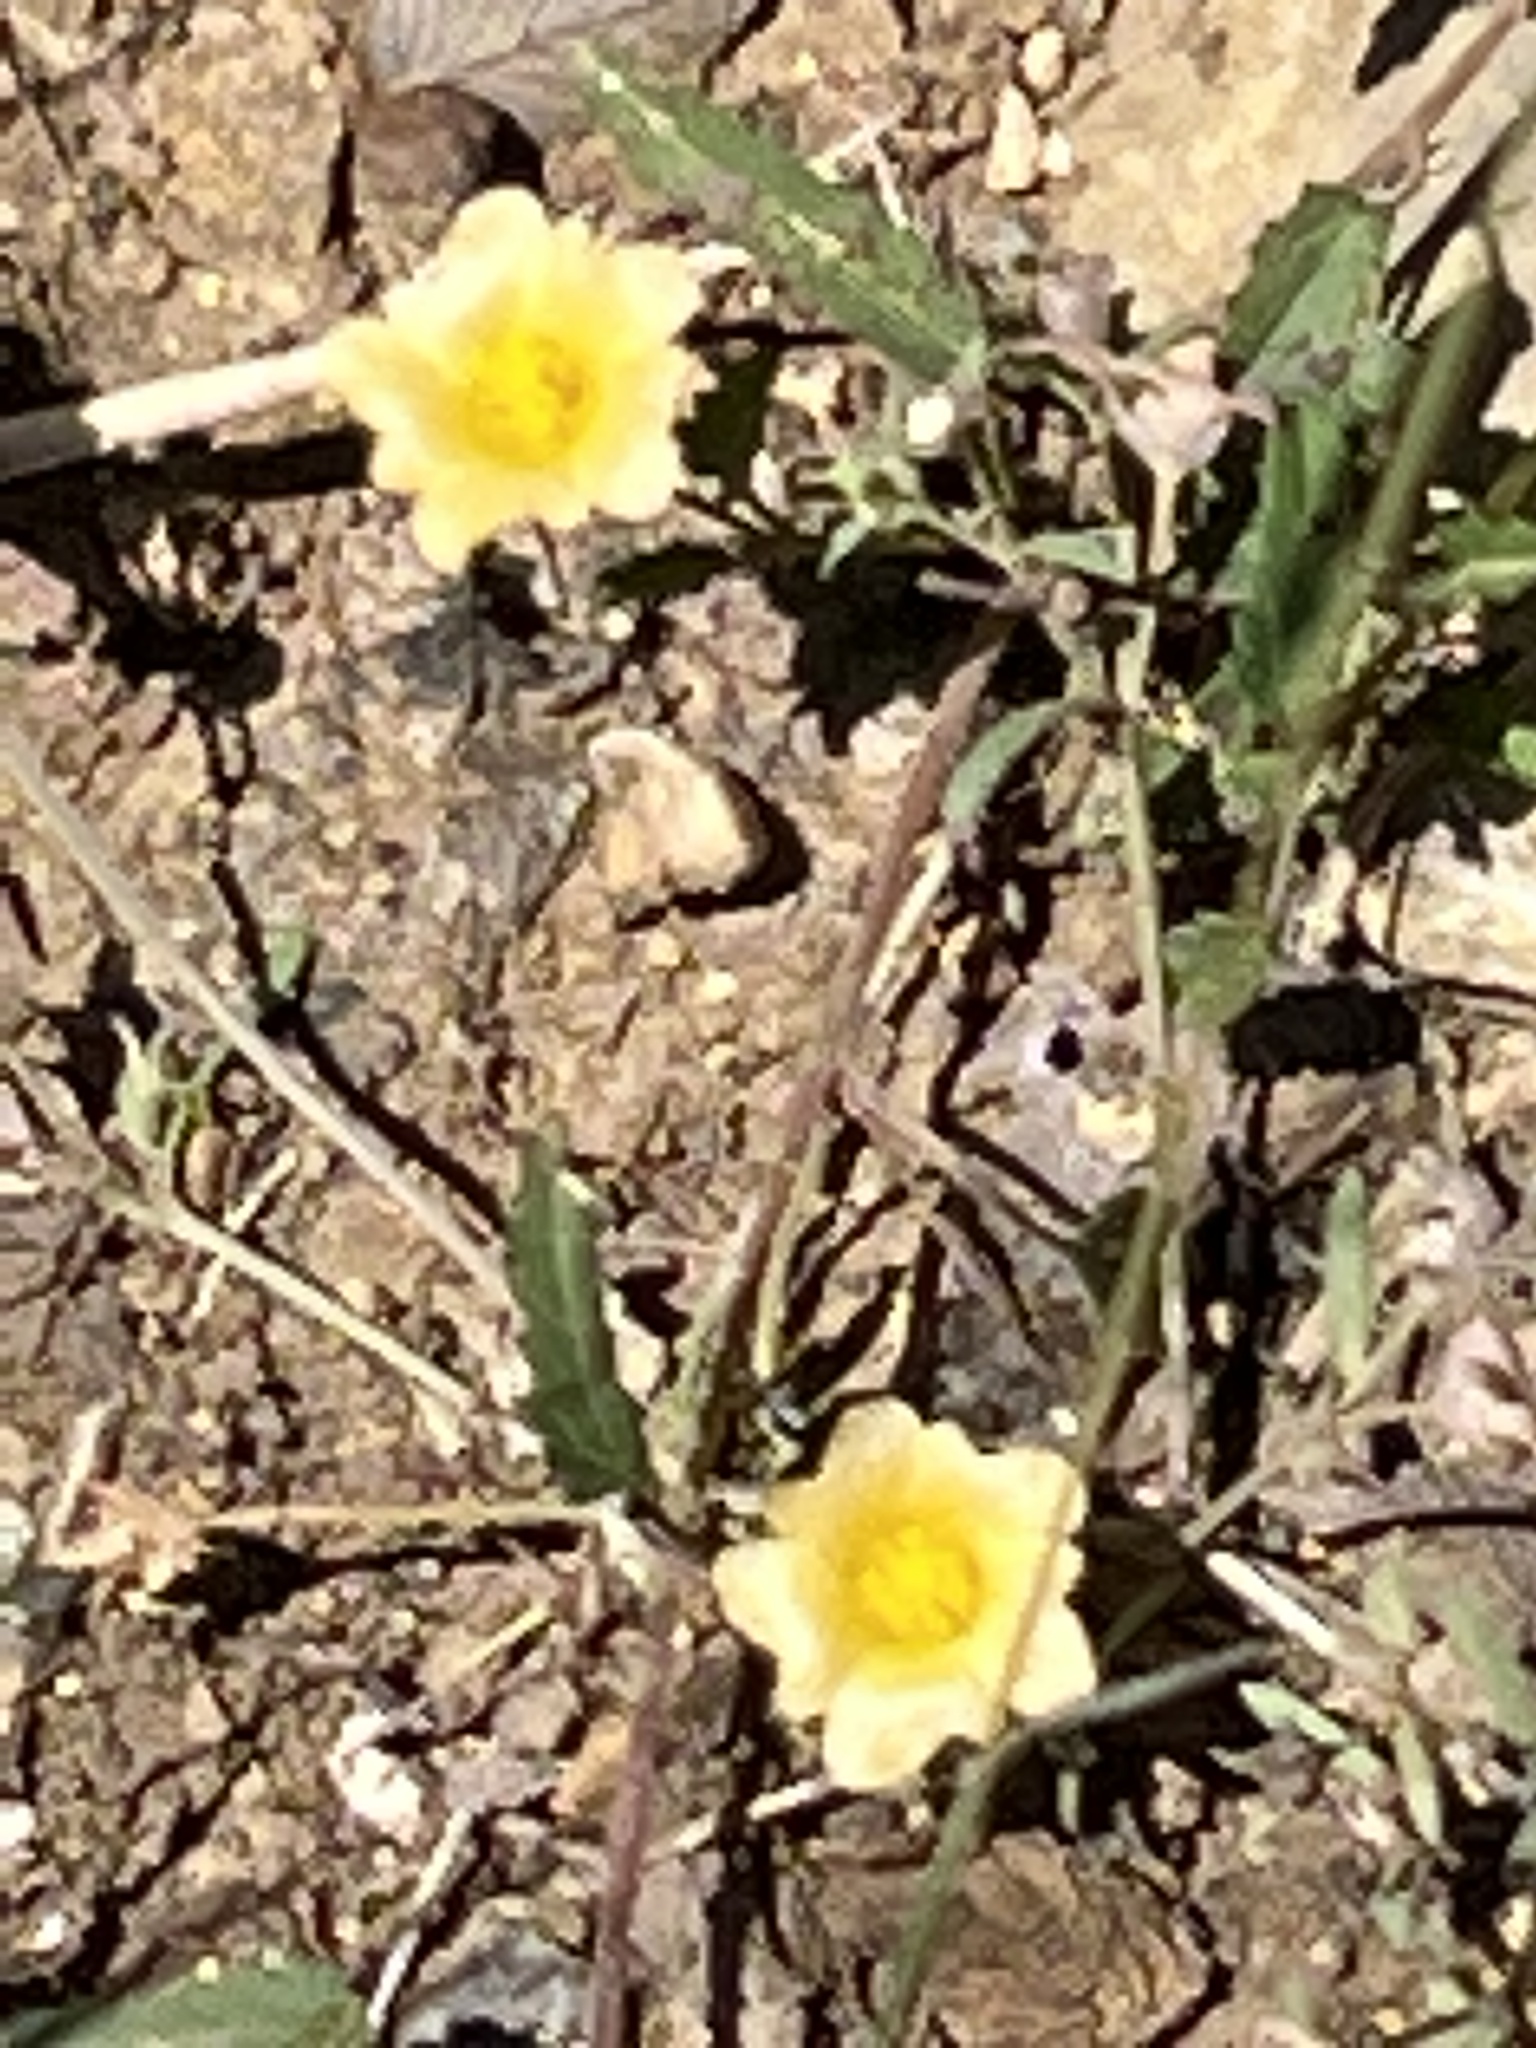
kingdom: Plantae
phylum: Tracheophyta
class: Magnoliopsida
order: Malvales
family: Malvaceae
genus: Sida
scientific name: Sida abutilifolia
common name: Spreading fanpetals
